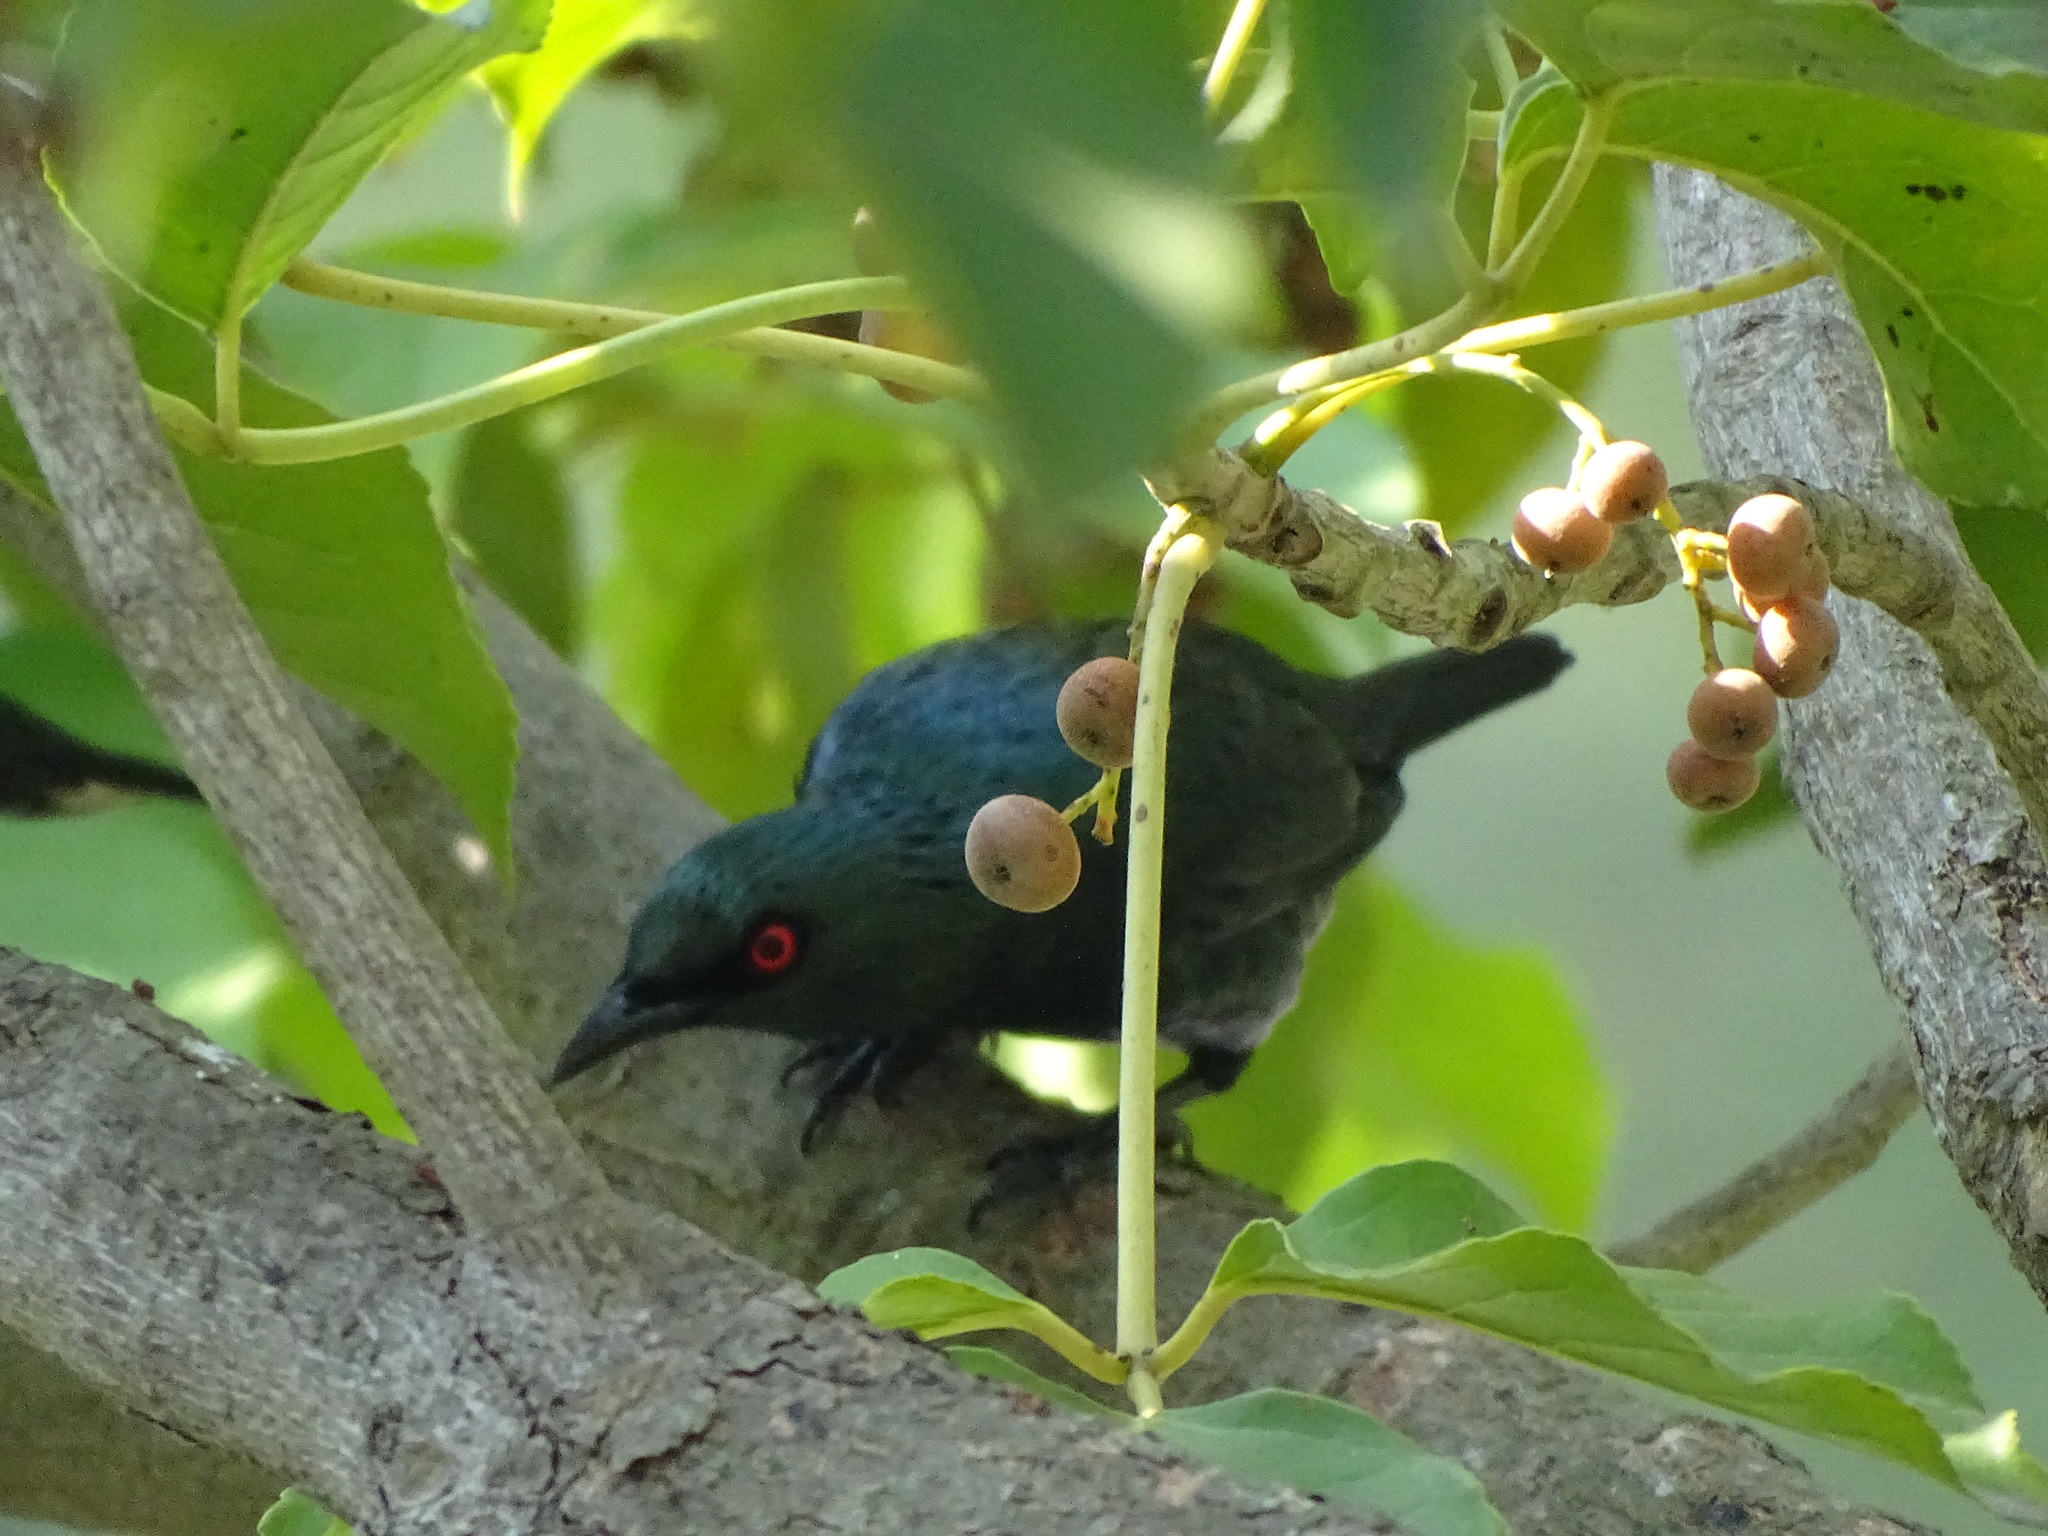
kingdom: Animalia
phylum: Chordata
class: Aves
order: Passeriformes
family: Sturnidae
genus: Aplonis
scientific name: Aplonis panayensis
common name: Asian glossy starling
